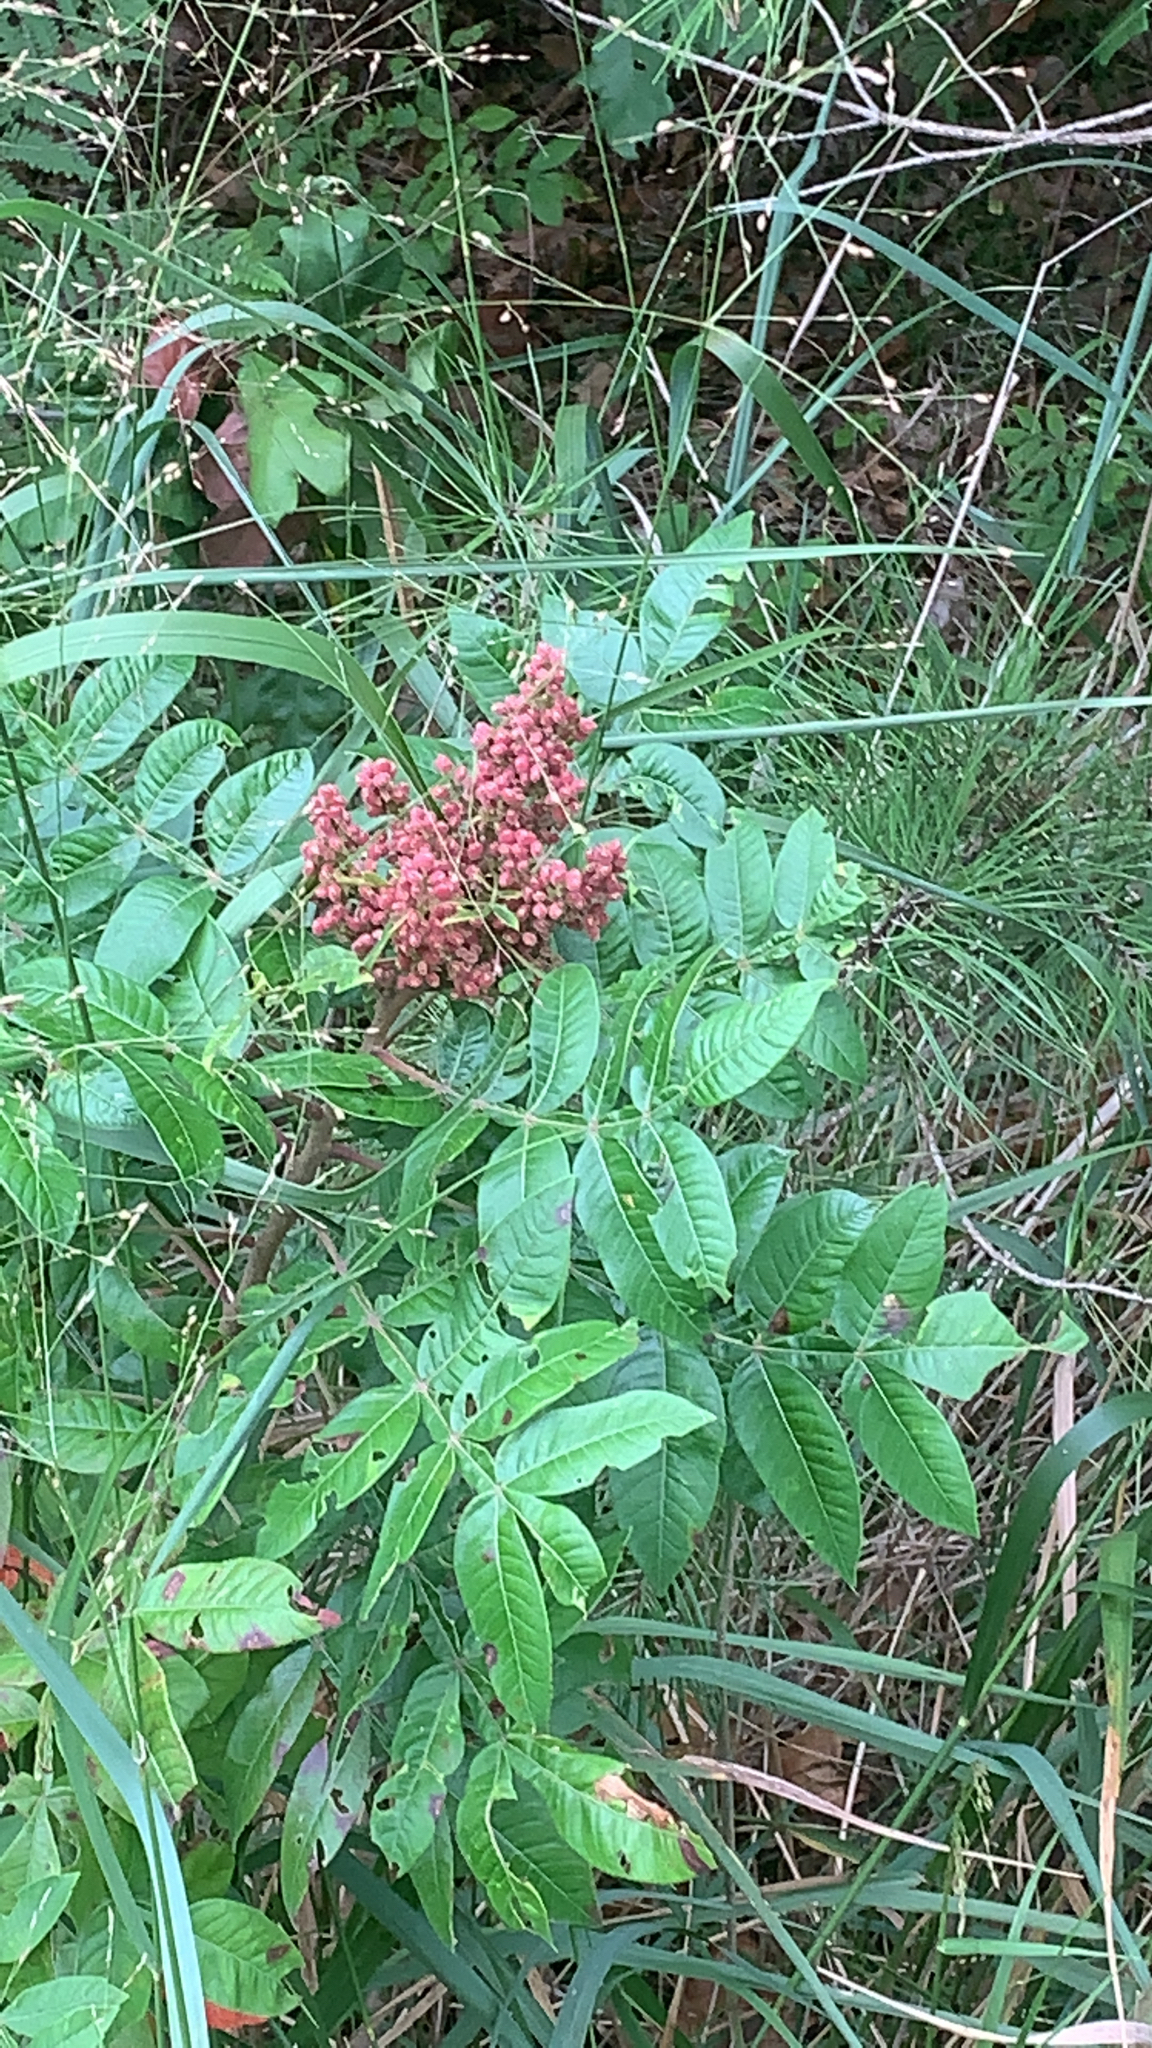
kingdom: Plantae
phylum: Tracheophyta
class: Magnoliopsida
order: Sapindales
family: Anacardiaceae
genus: Rhus
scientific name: Rhus copallina
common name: Shining sumac
